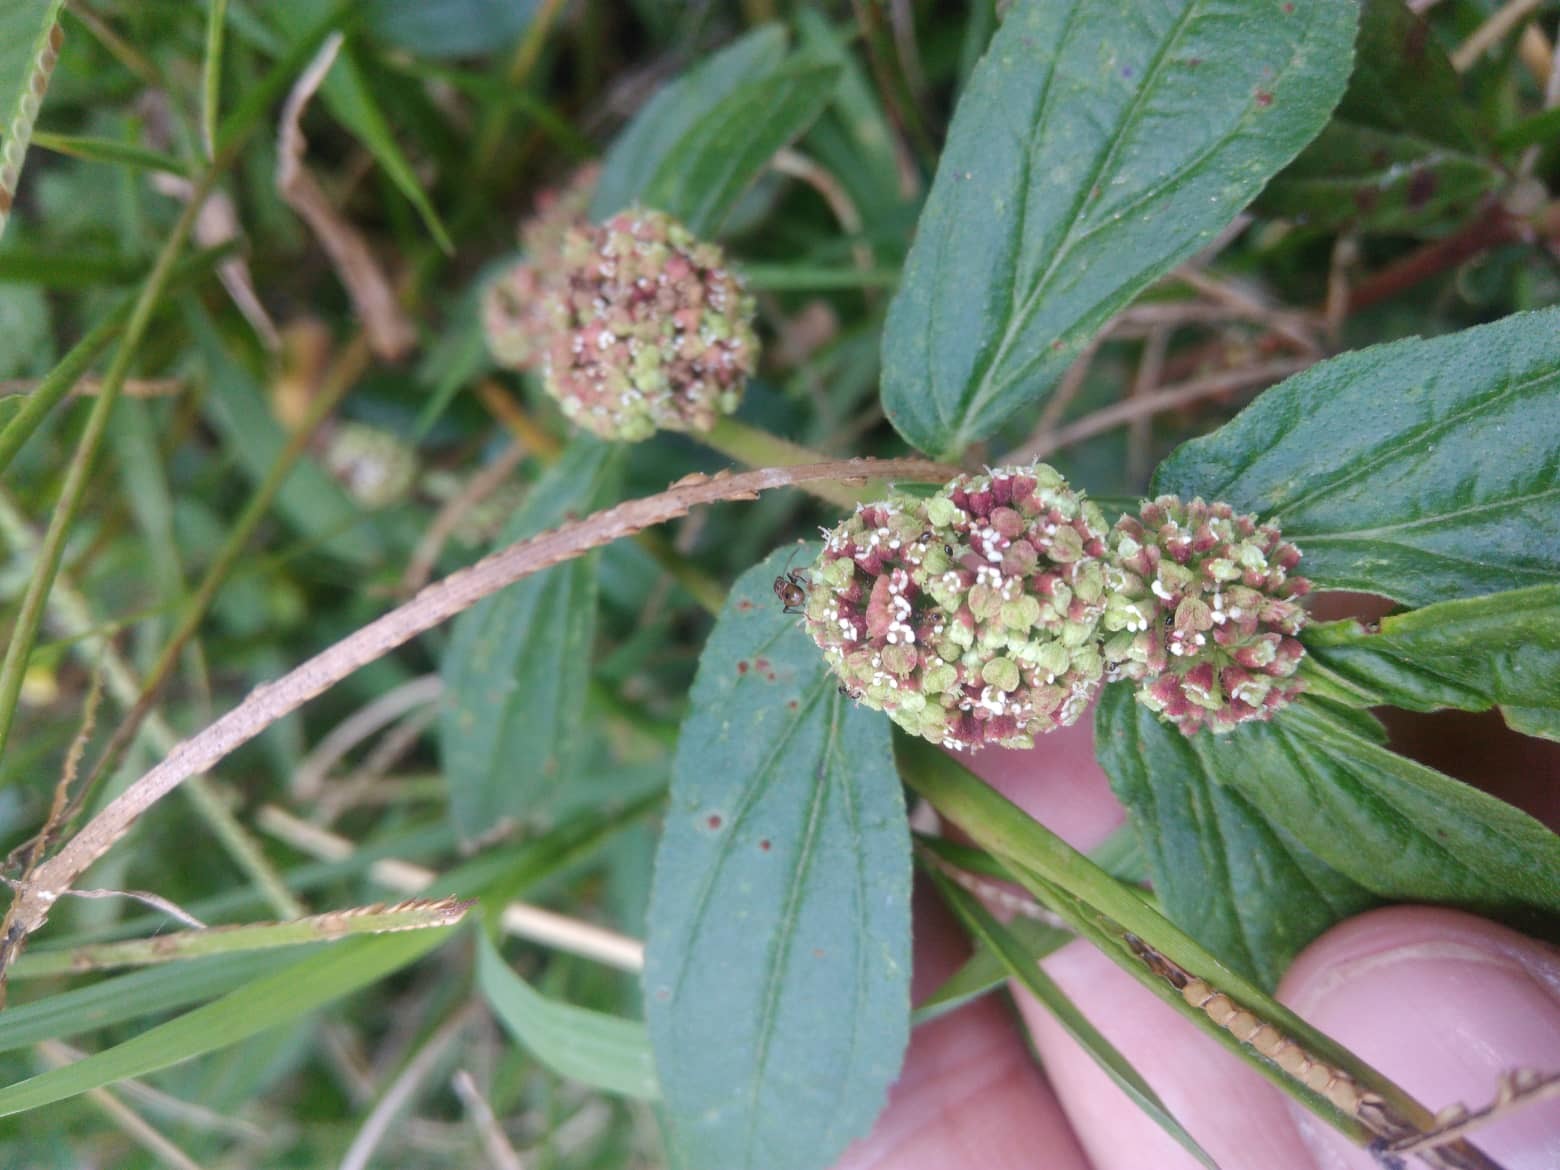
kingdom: Plantae
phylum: Tracheophyta
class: Magnoliopsida
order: Malpighiales
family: Euphorbiaceae
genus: Euphorbia
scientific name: Euphorbia hirta
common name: Pillpod sandmat
